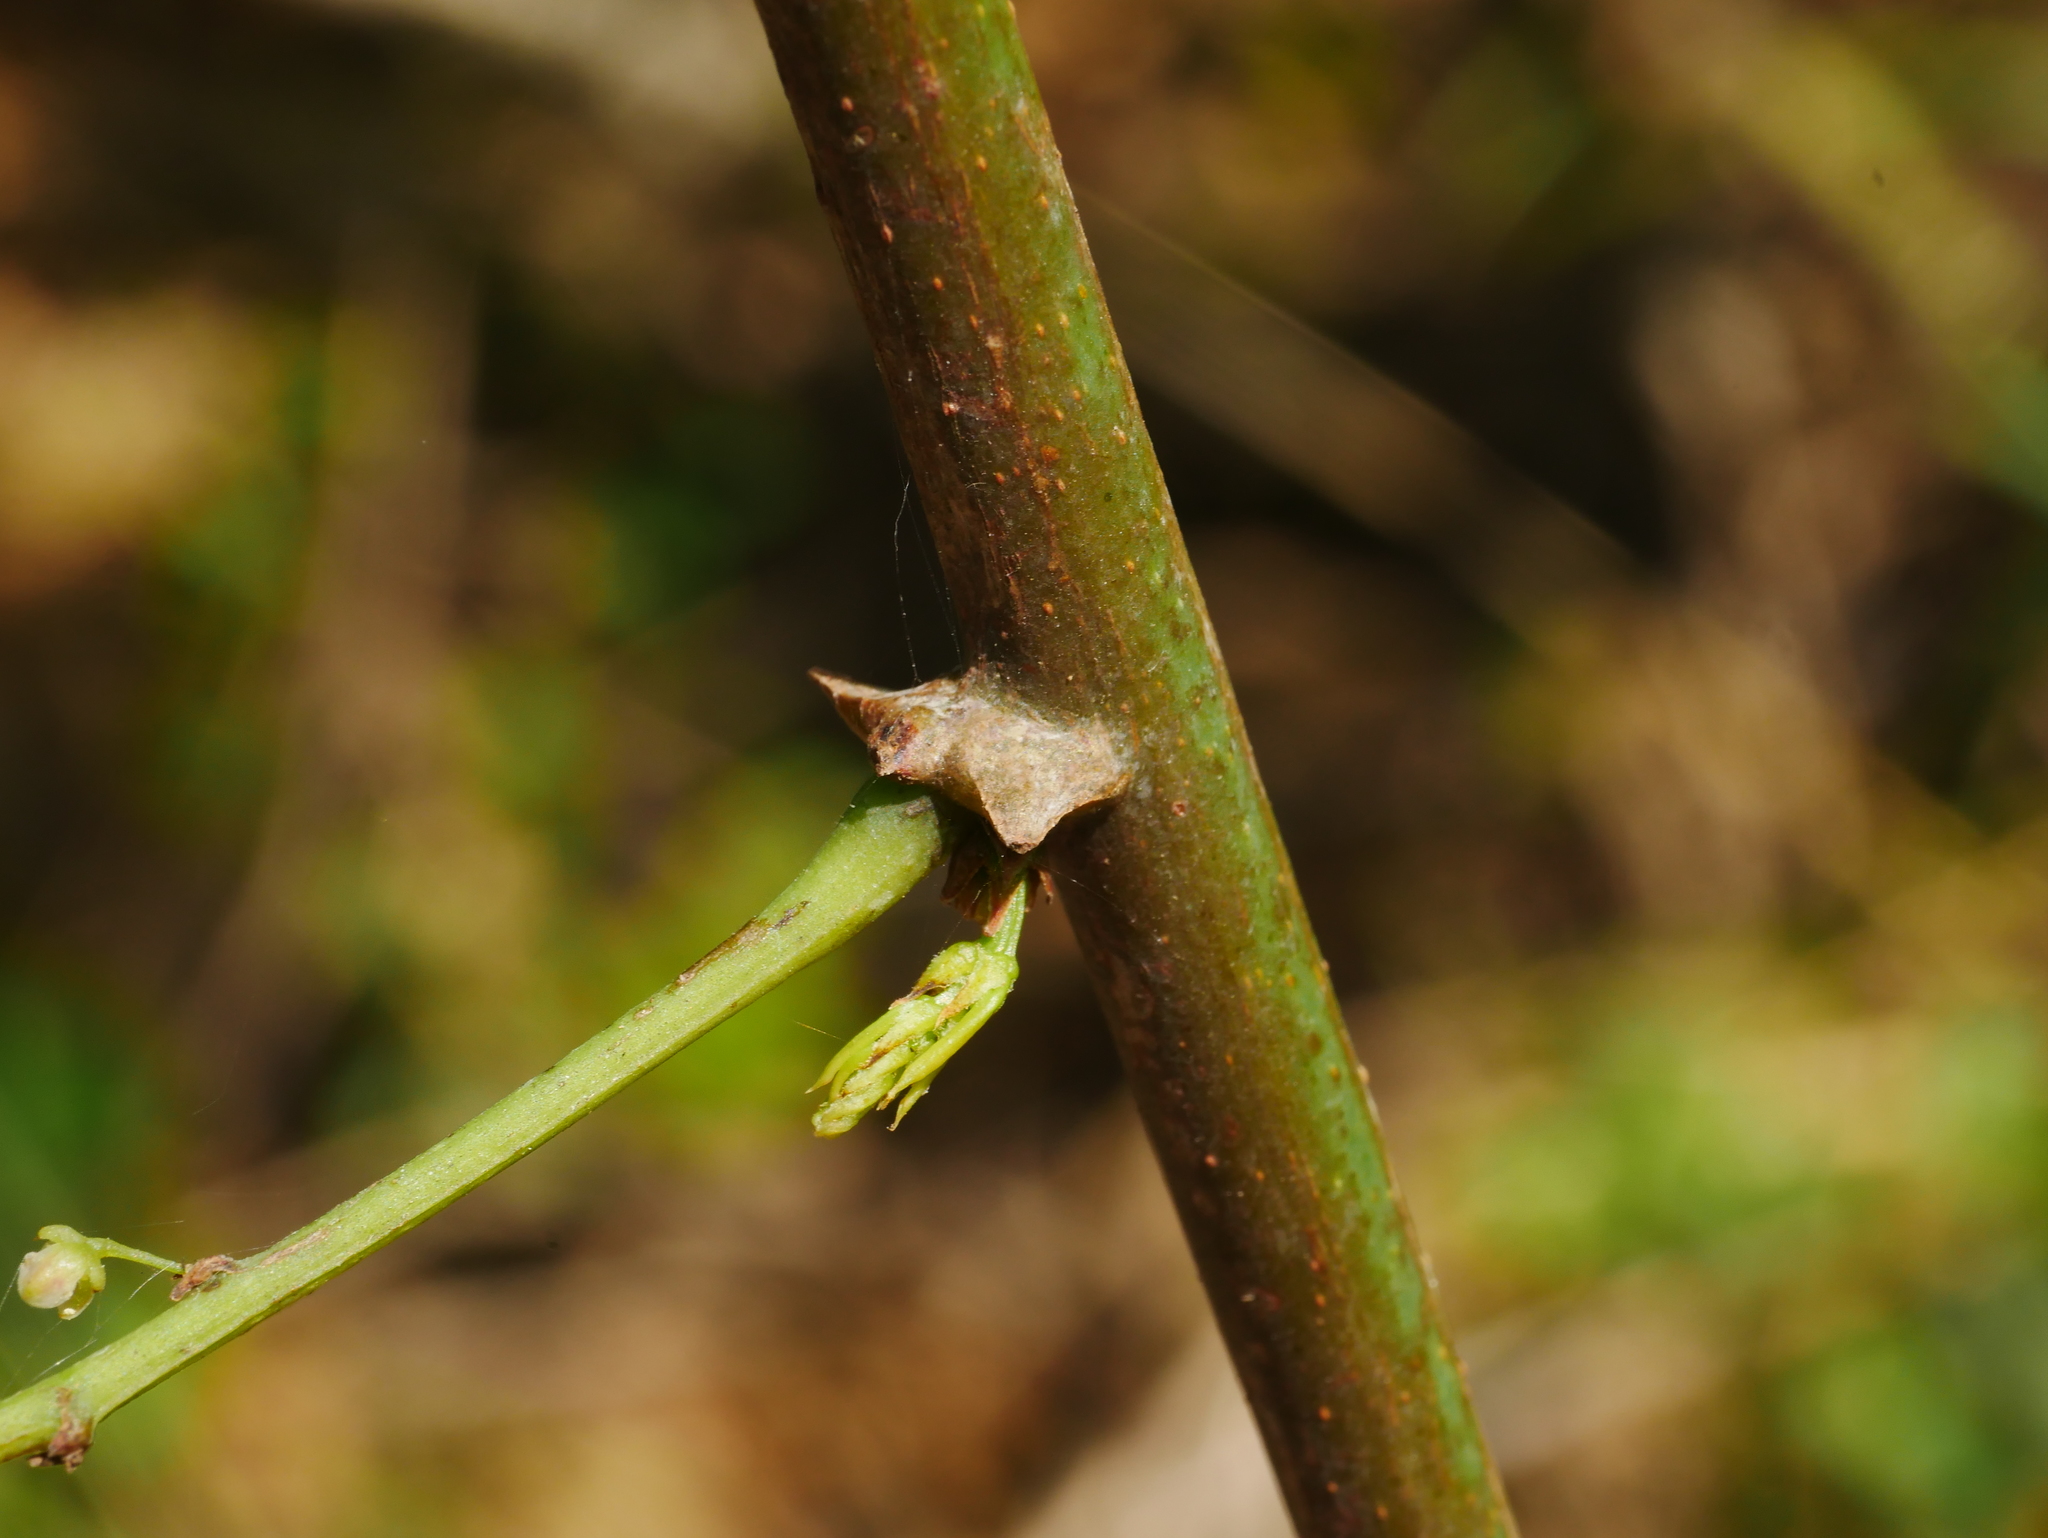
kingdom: Plantae
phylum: Tracheophyta
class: Magnoliopsida
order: Malpighiales
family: Phyllanthaceae
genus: Phyllanthus
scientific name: Phyllanthus reticulatus
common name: Potato bush
